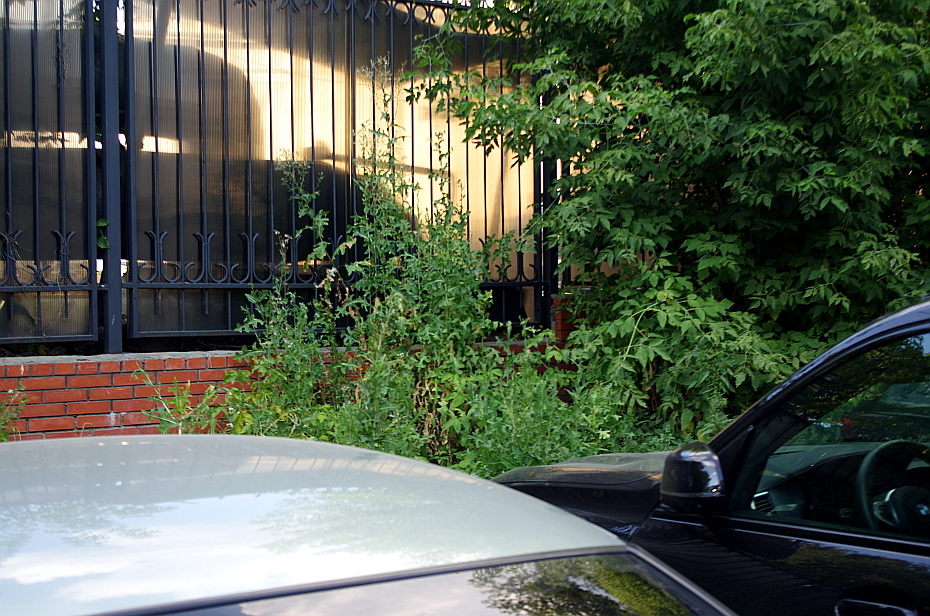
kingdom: Plantae
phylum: Tracheophyta
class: Magnoliopsida
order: Asterales
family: Asteraceae
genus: Lactuca
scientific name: Lactuca serriola
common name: Prickly lettuce
